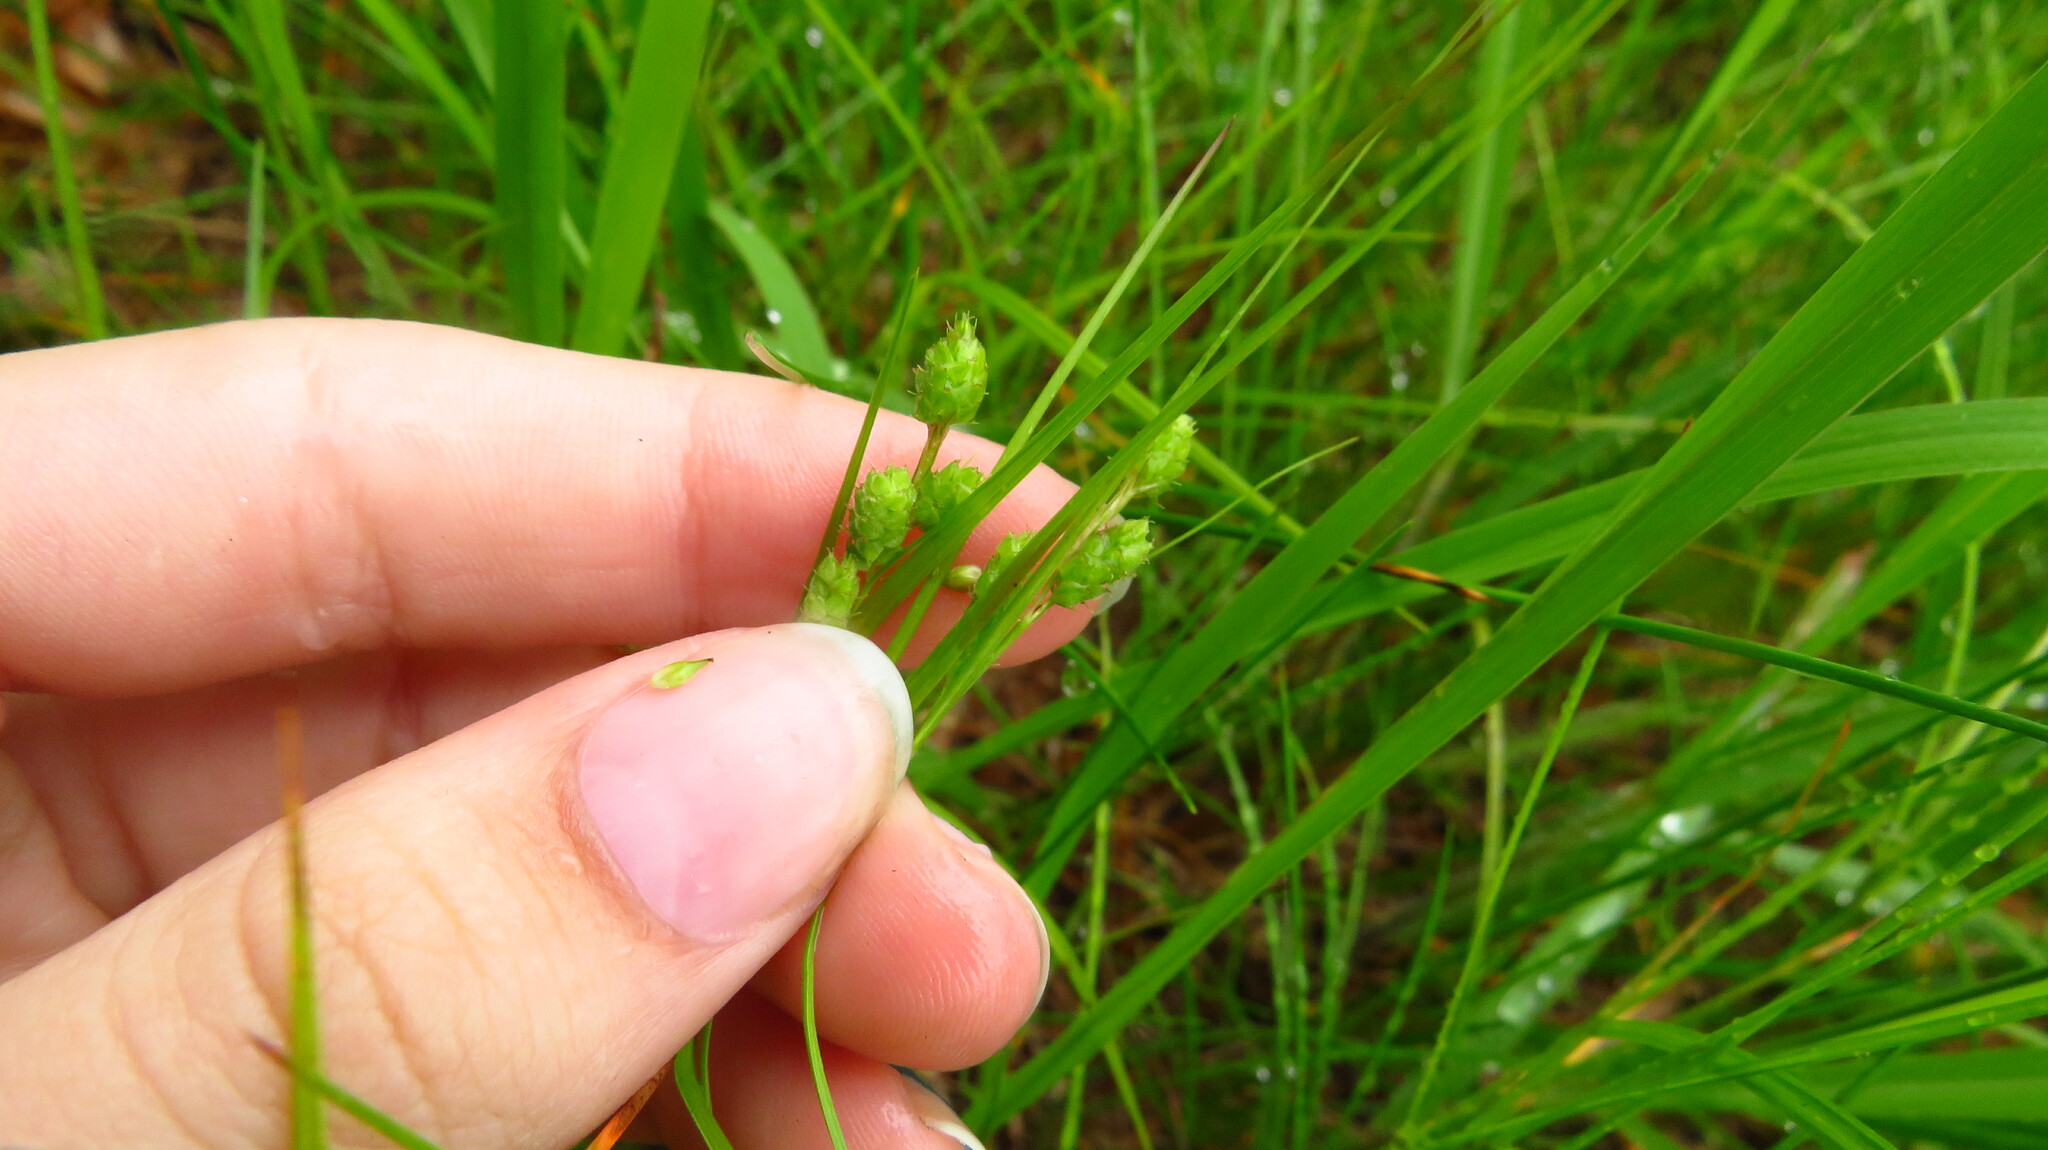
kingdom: Plantae
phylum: Tracheophyta
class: Liliopsida
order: Poales
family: Cyperaceae
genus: Carex
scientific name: Carex swanii
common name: Downy green sedge
